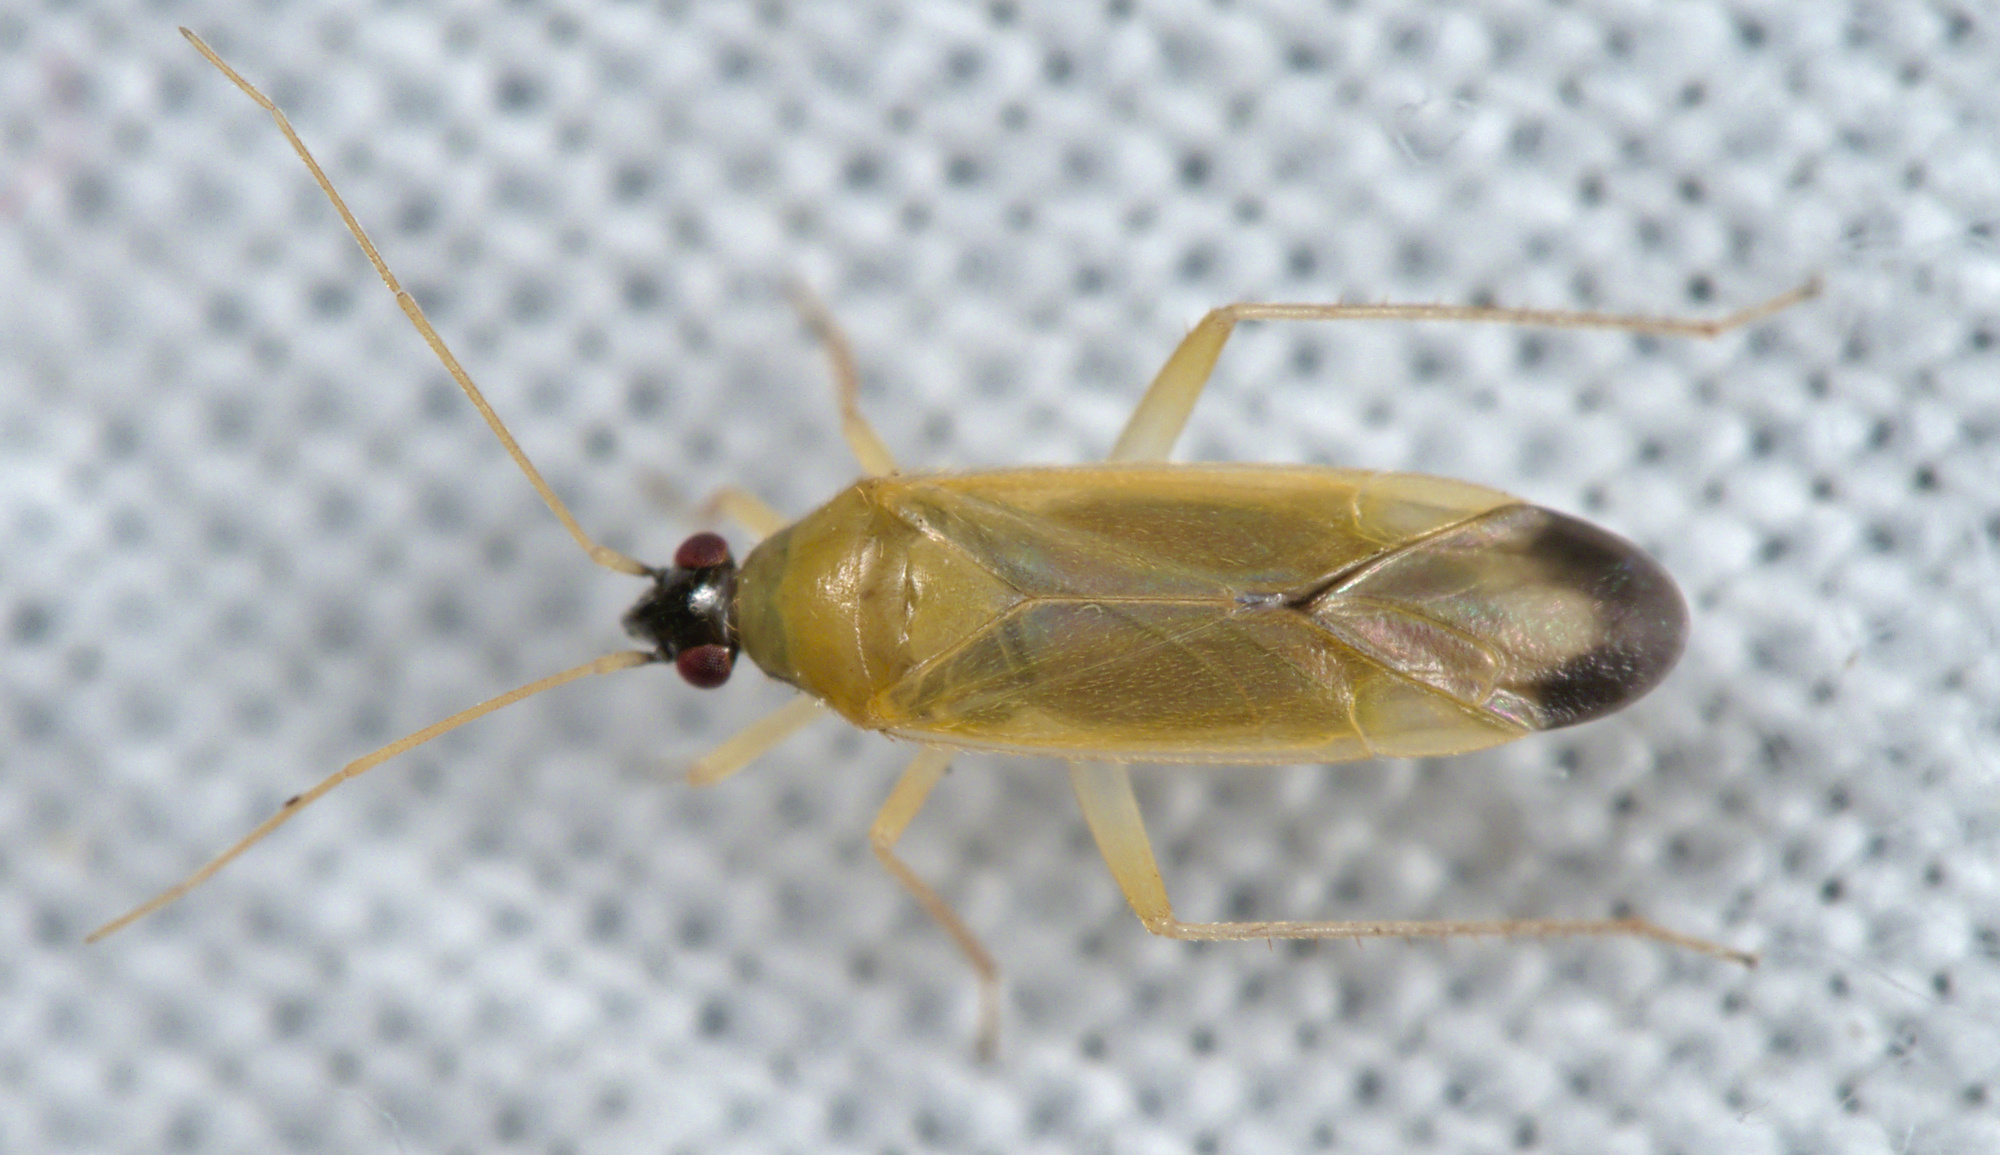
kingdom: Animalia
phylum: Arthropoda
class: Insecta
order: Hemiptera
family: Miridae
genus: Phylus
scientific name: Phylus melanocephalus
